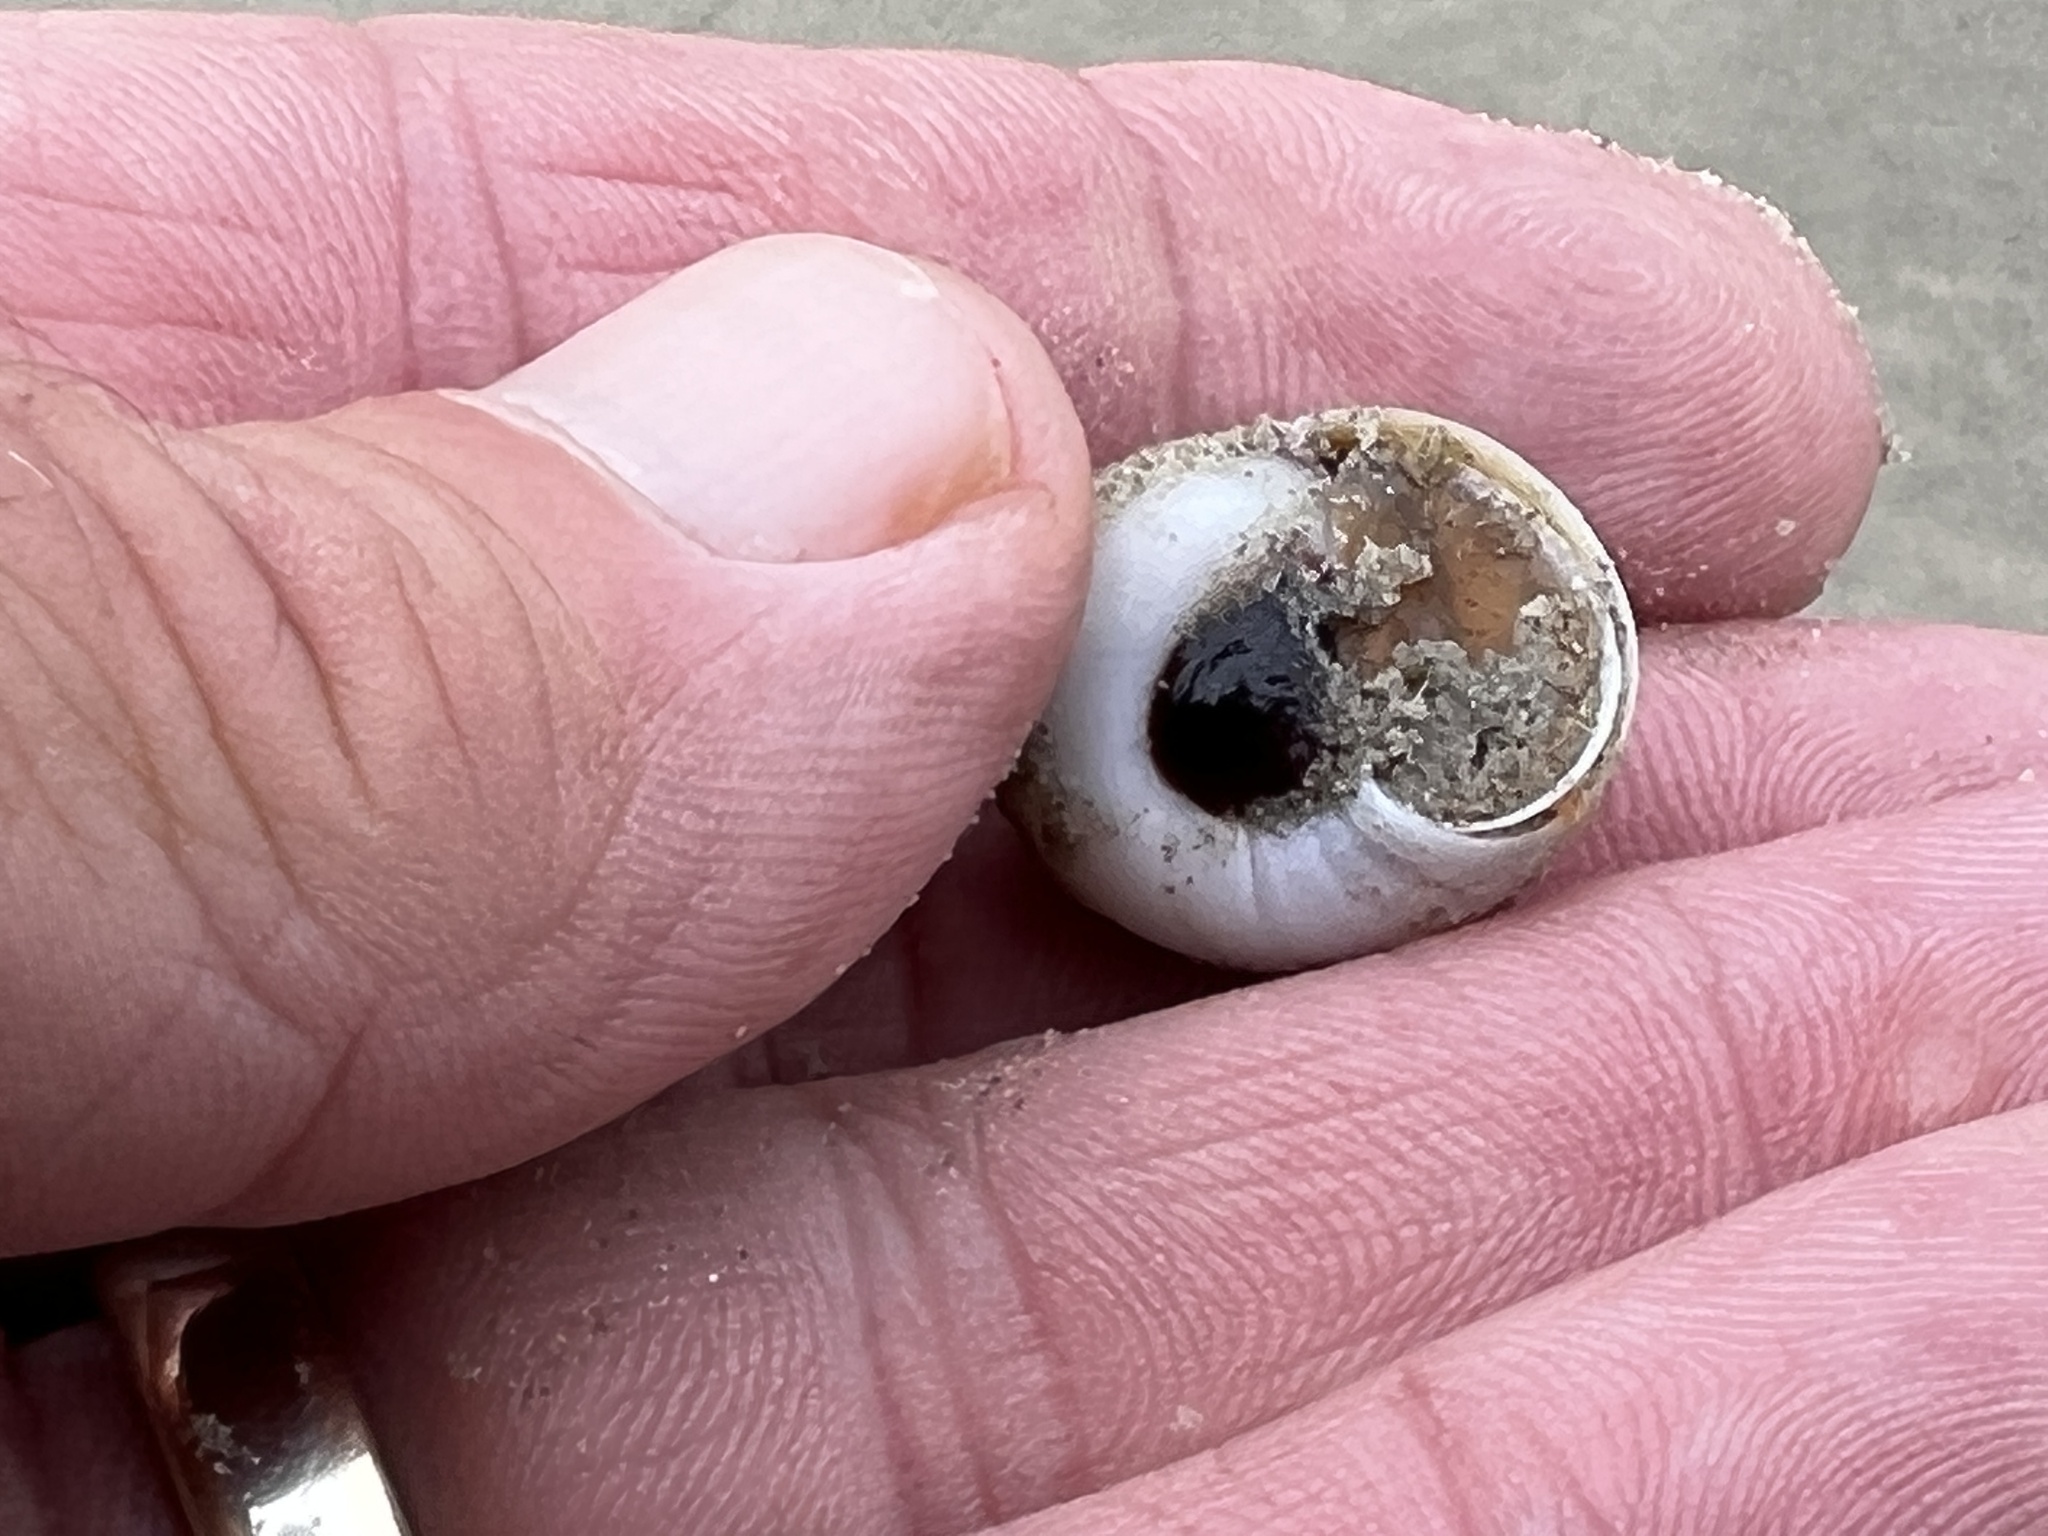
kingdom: Animalia
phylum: Mollusca
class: Gastropoda
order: Littorinimorpha
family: Naticidae
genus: Neverita
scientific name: Neverita delessertiana
